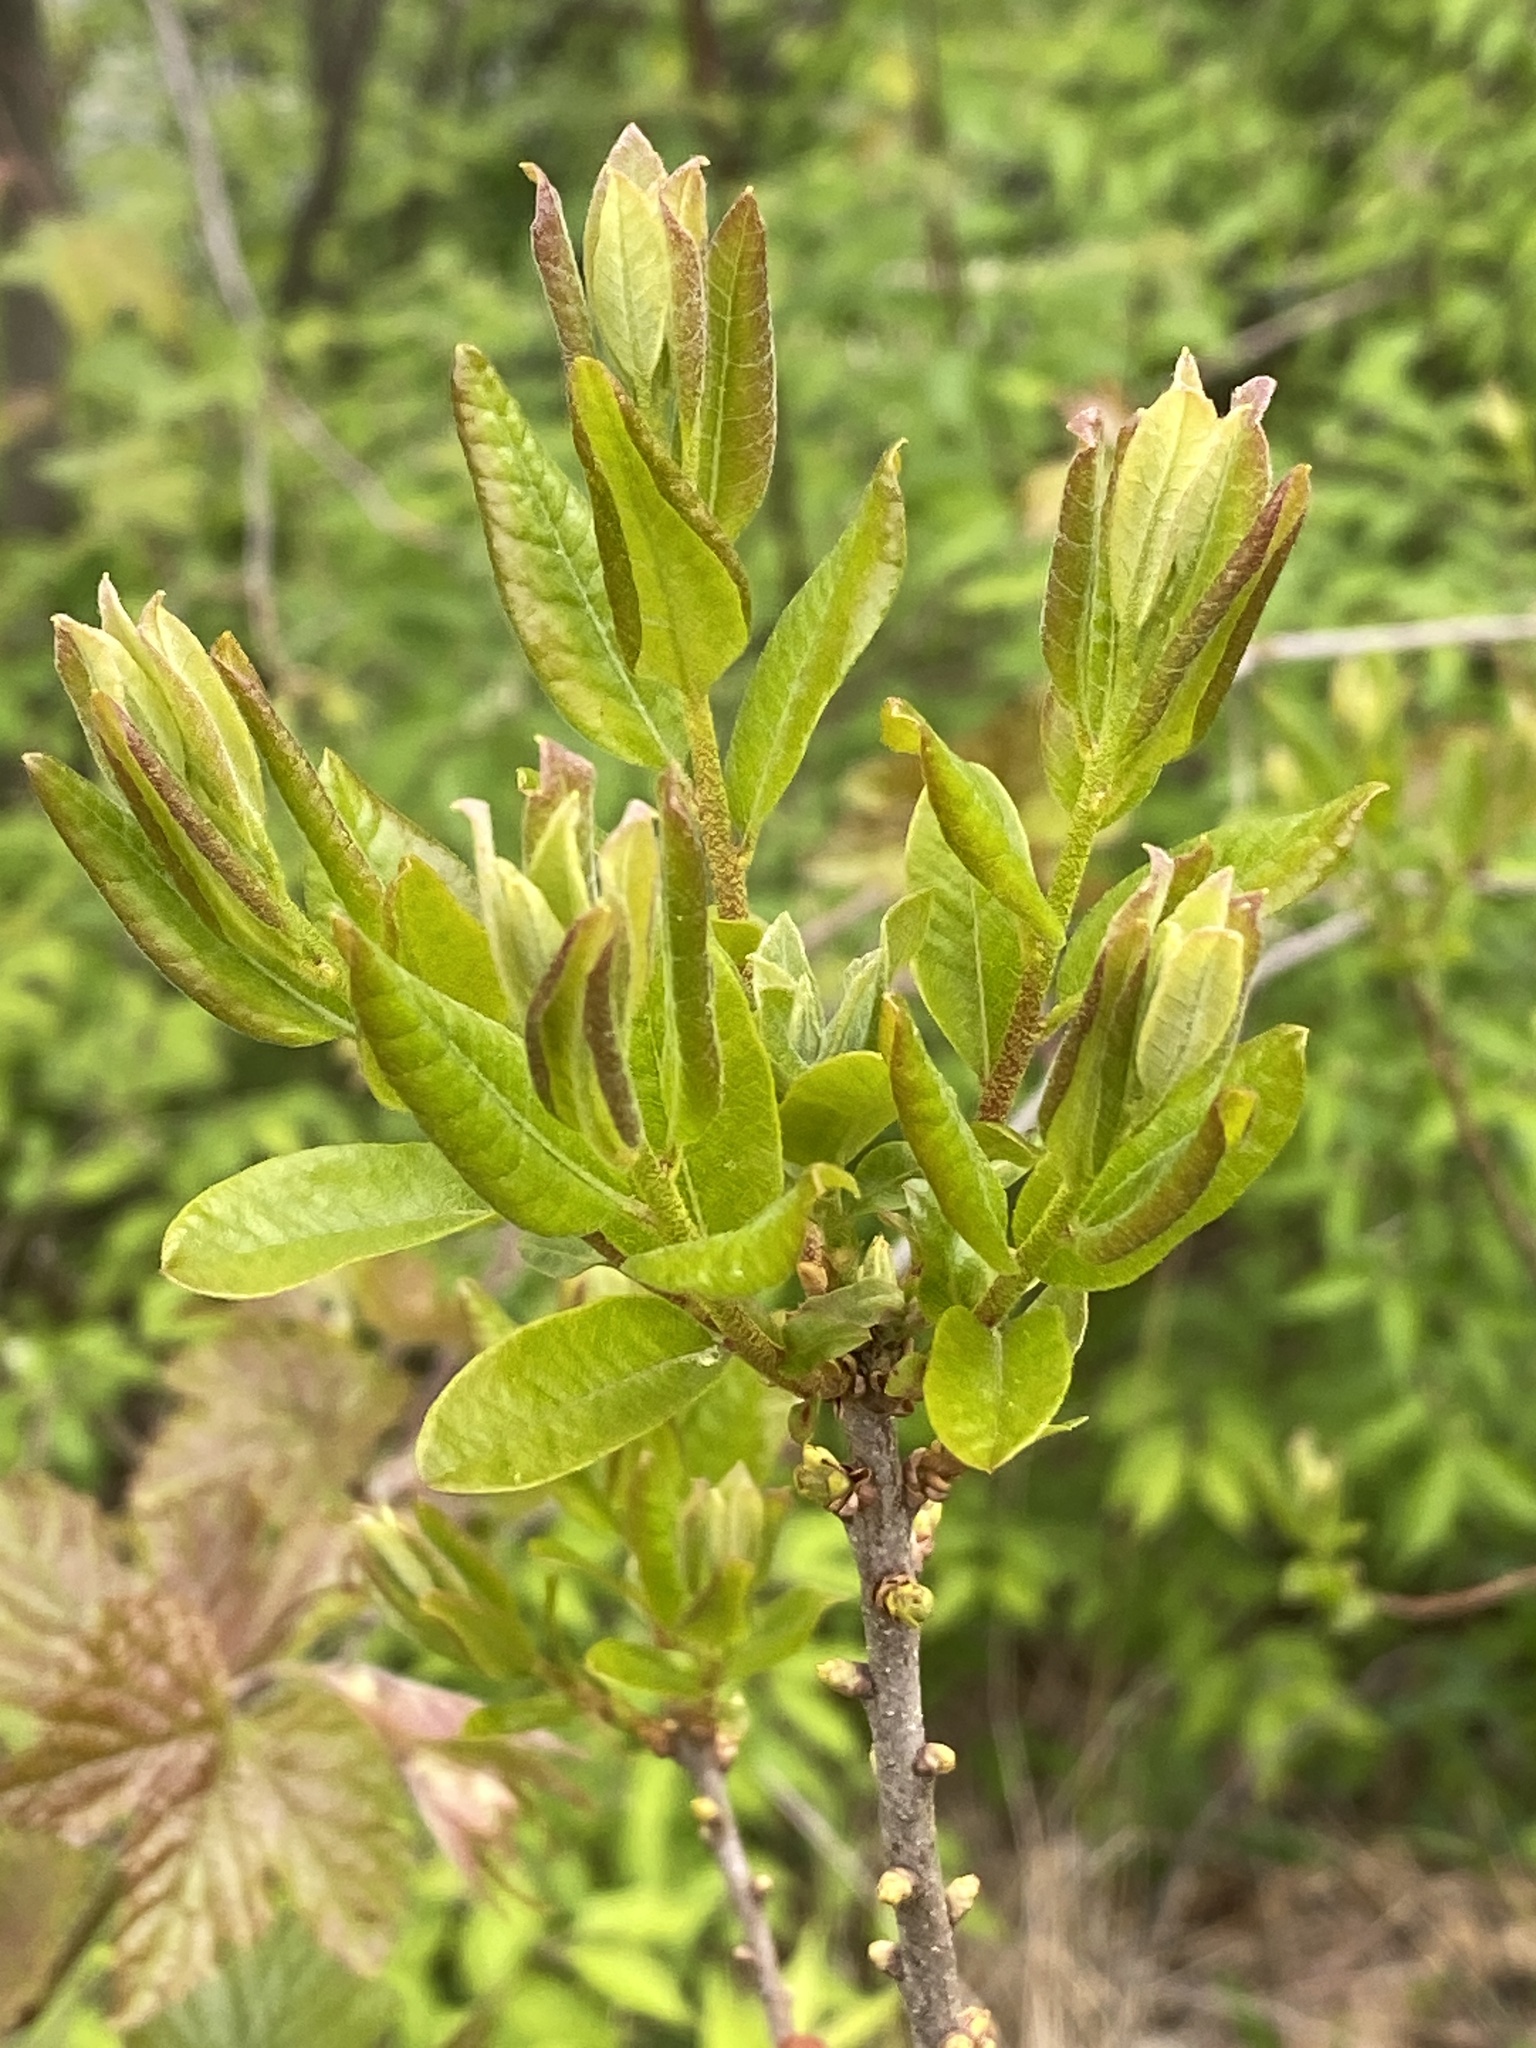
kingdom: Plantae
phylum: Tracheophyta
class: Magnoliopsida
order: Fagales
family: Myricaceae
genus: Morella
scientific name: Morella pensylvanica
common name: Northern bayberry
